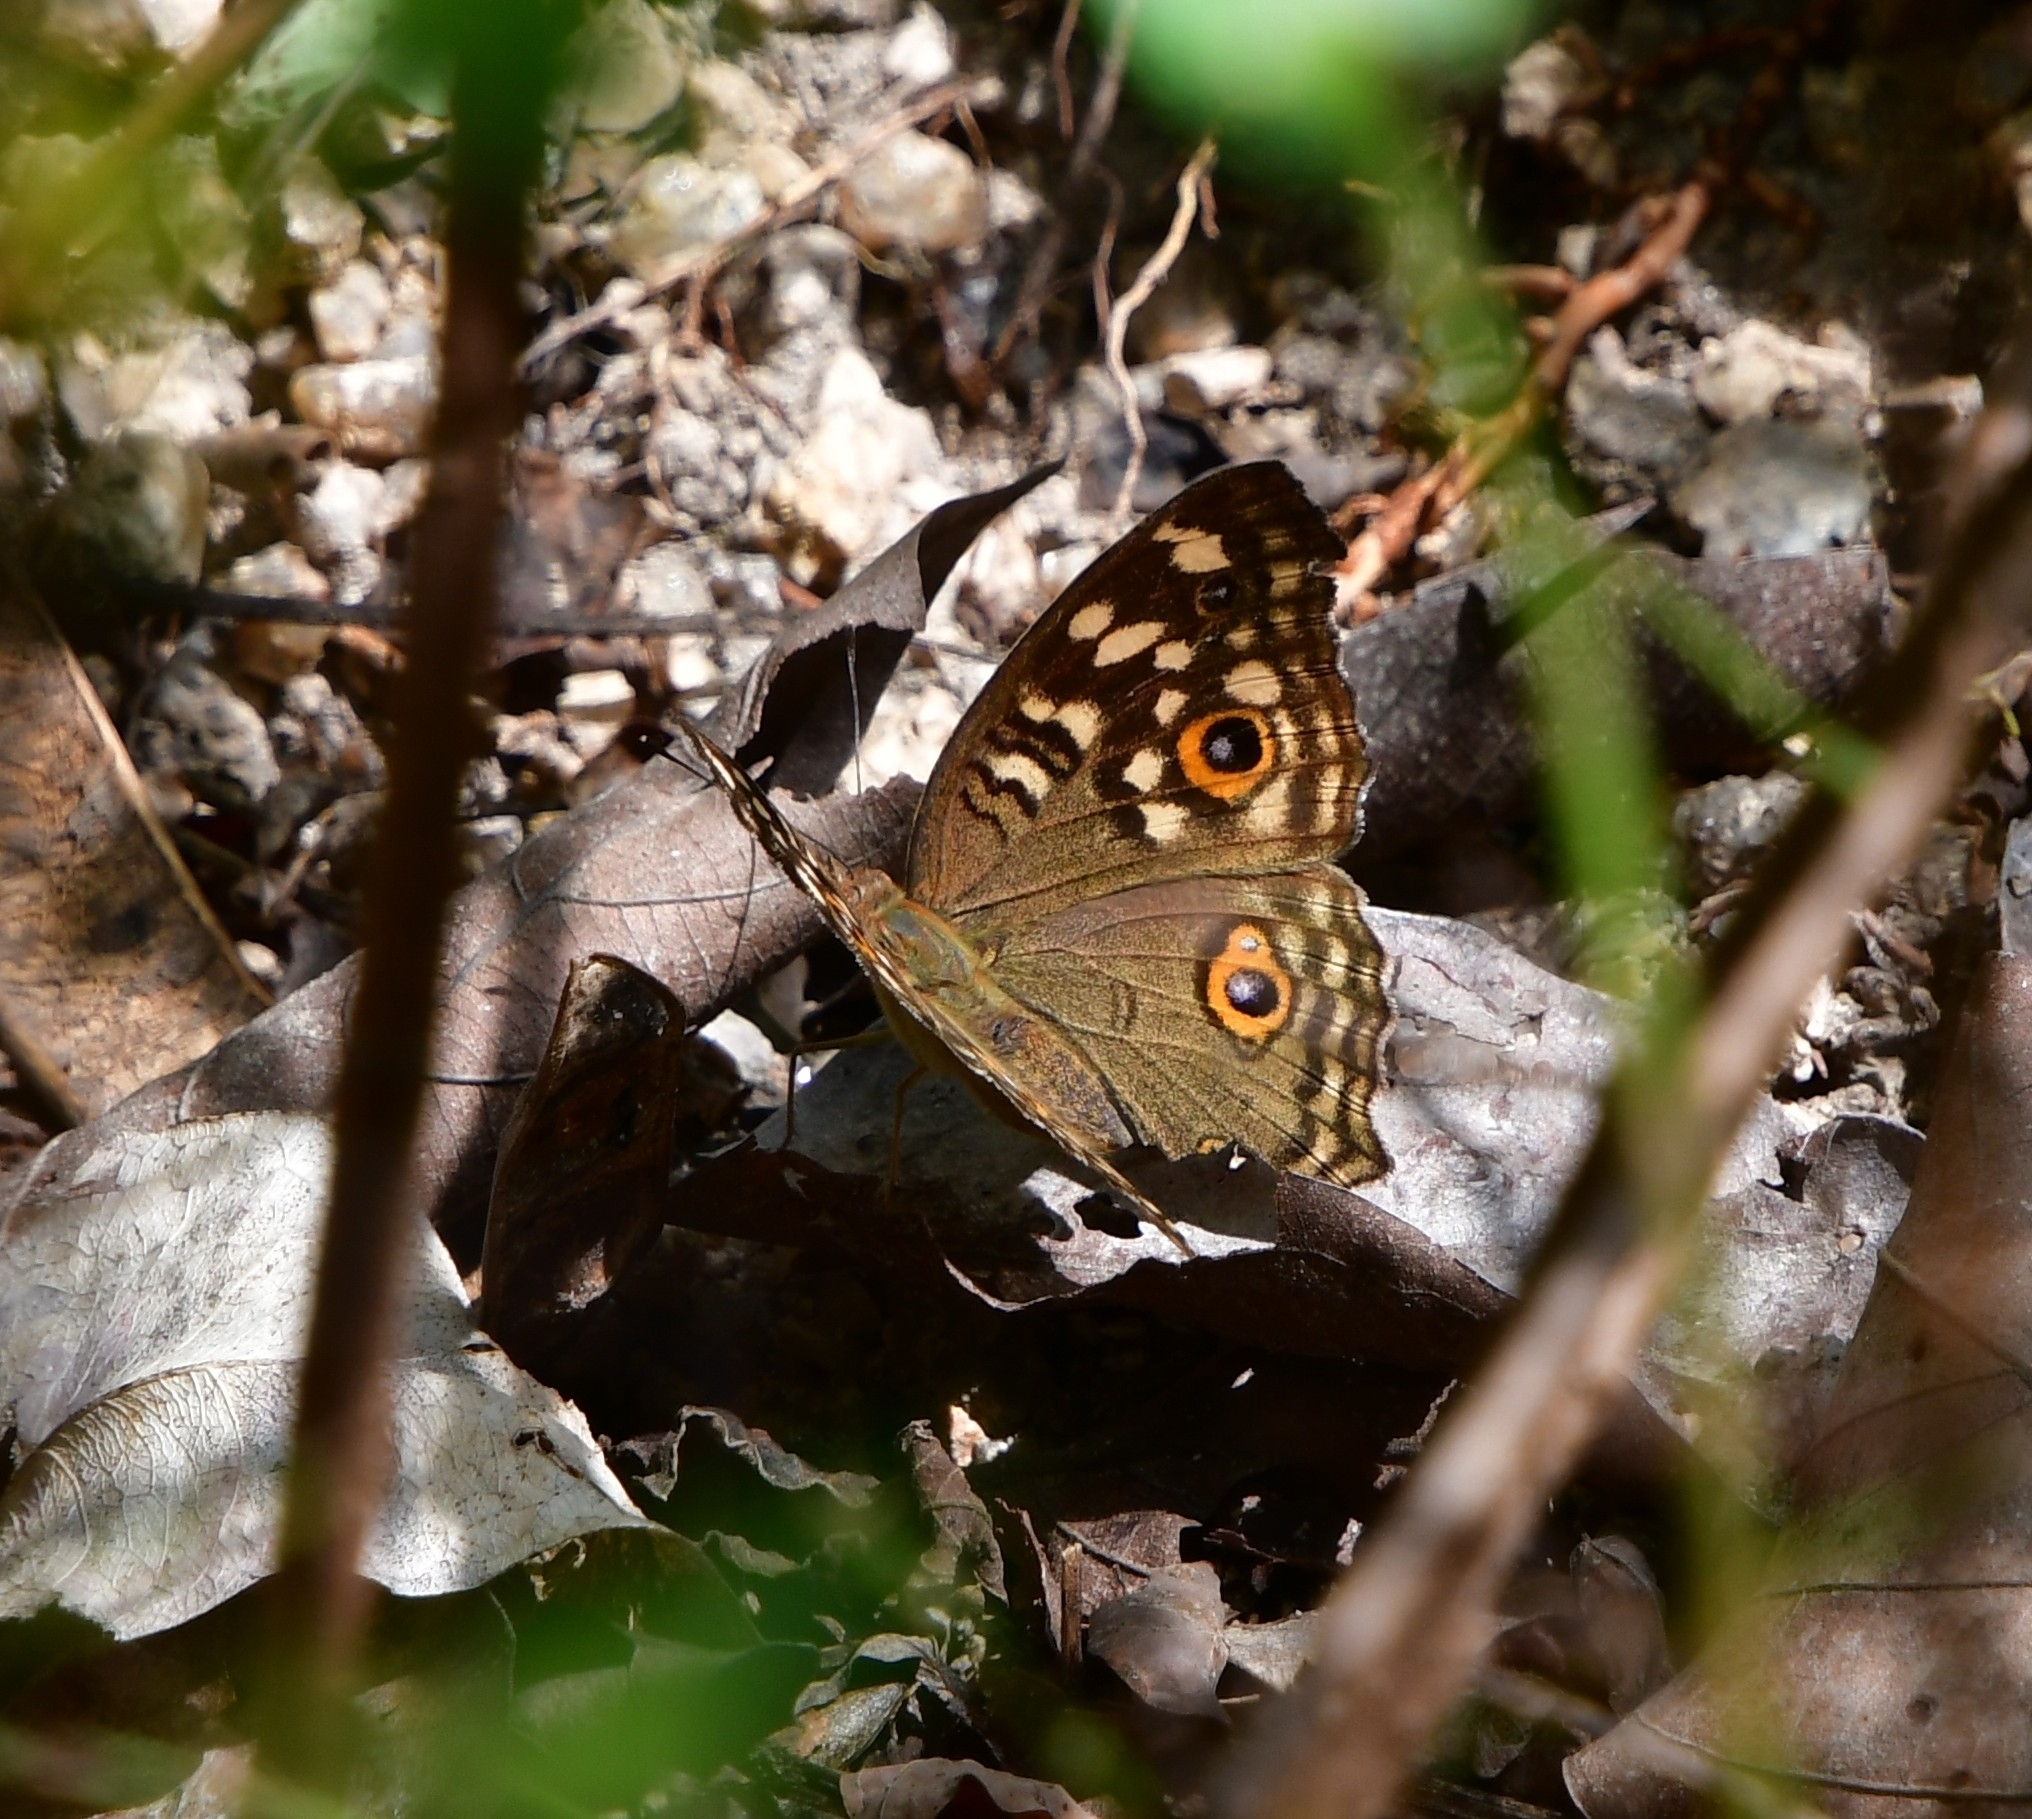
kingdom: Animalia
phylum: Arthropoda
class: Insecta
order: Lepidoptera
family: Nymphalidae
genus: Junonia
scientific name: Junonia lemonias
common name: Lemon pansy
